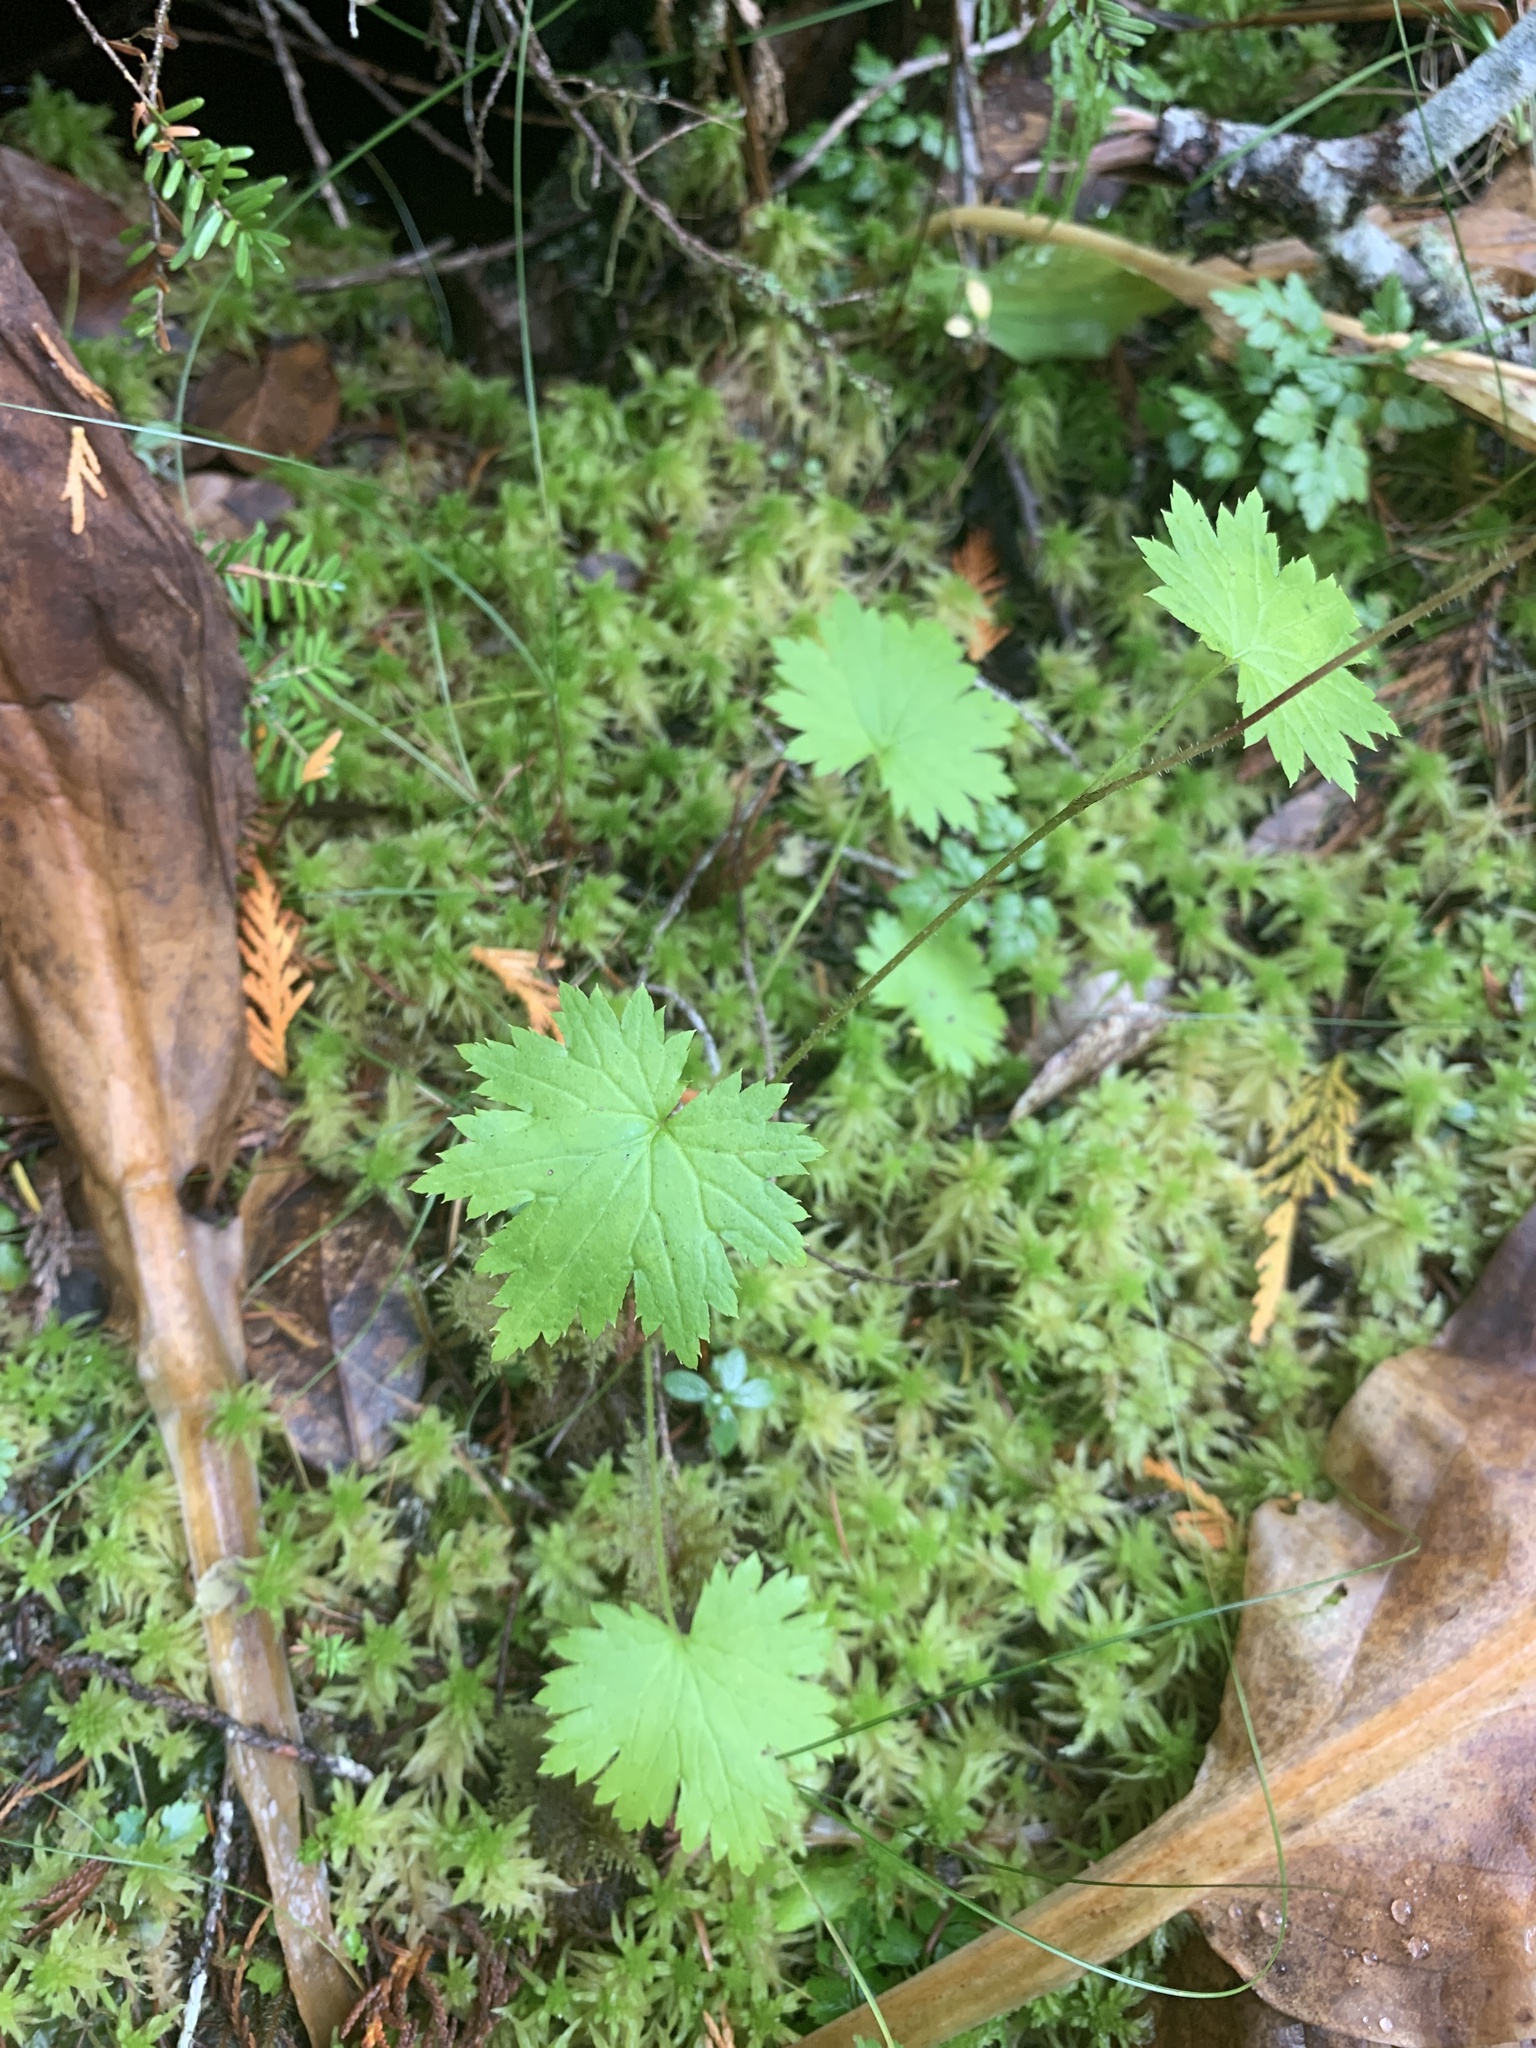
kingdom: Plantae
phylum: Tracheophyta
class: Magnoliopsida
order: Saxifragales
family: Saxifragaceae
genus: Boykinia
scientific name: Boykinia occidentalis
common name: Coast boykinia
